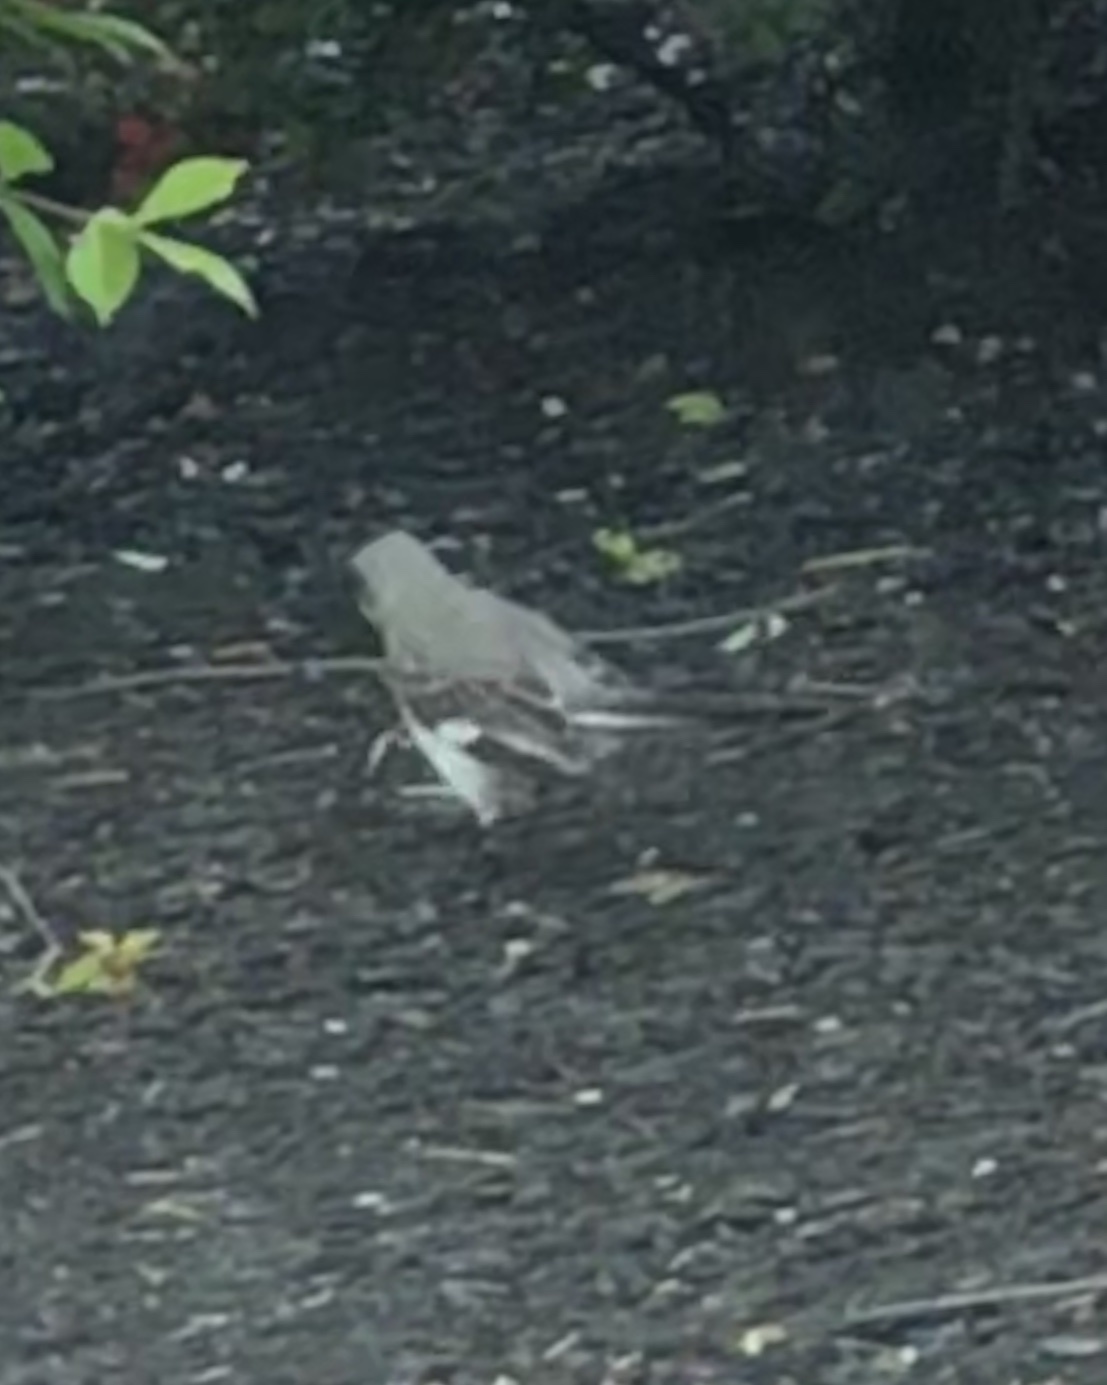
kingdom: Animalia
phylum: Chordata
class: Aves
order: Passeriformes
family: Mimidae
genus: Mimus
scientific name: Mimus polyglottos
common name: Northern mockingbird
